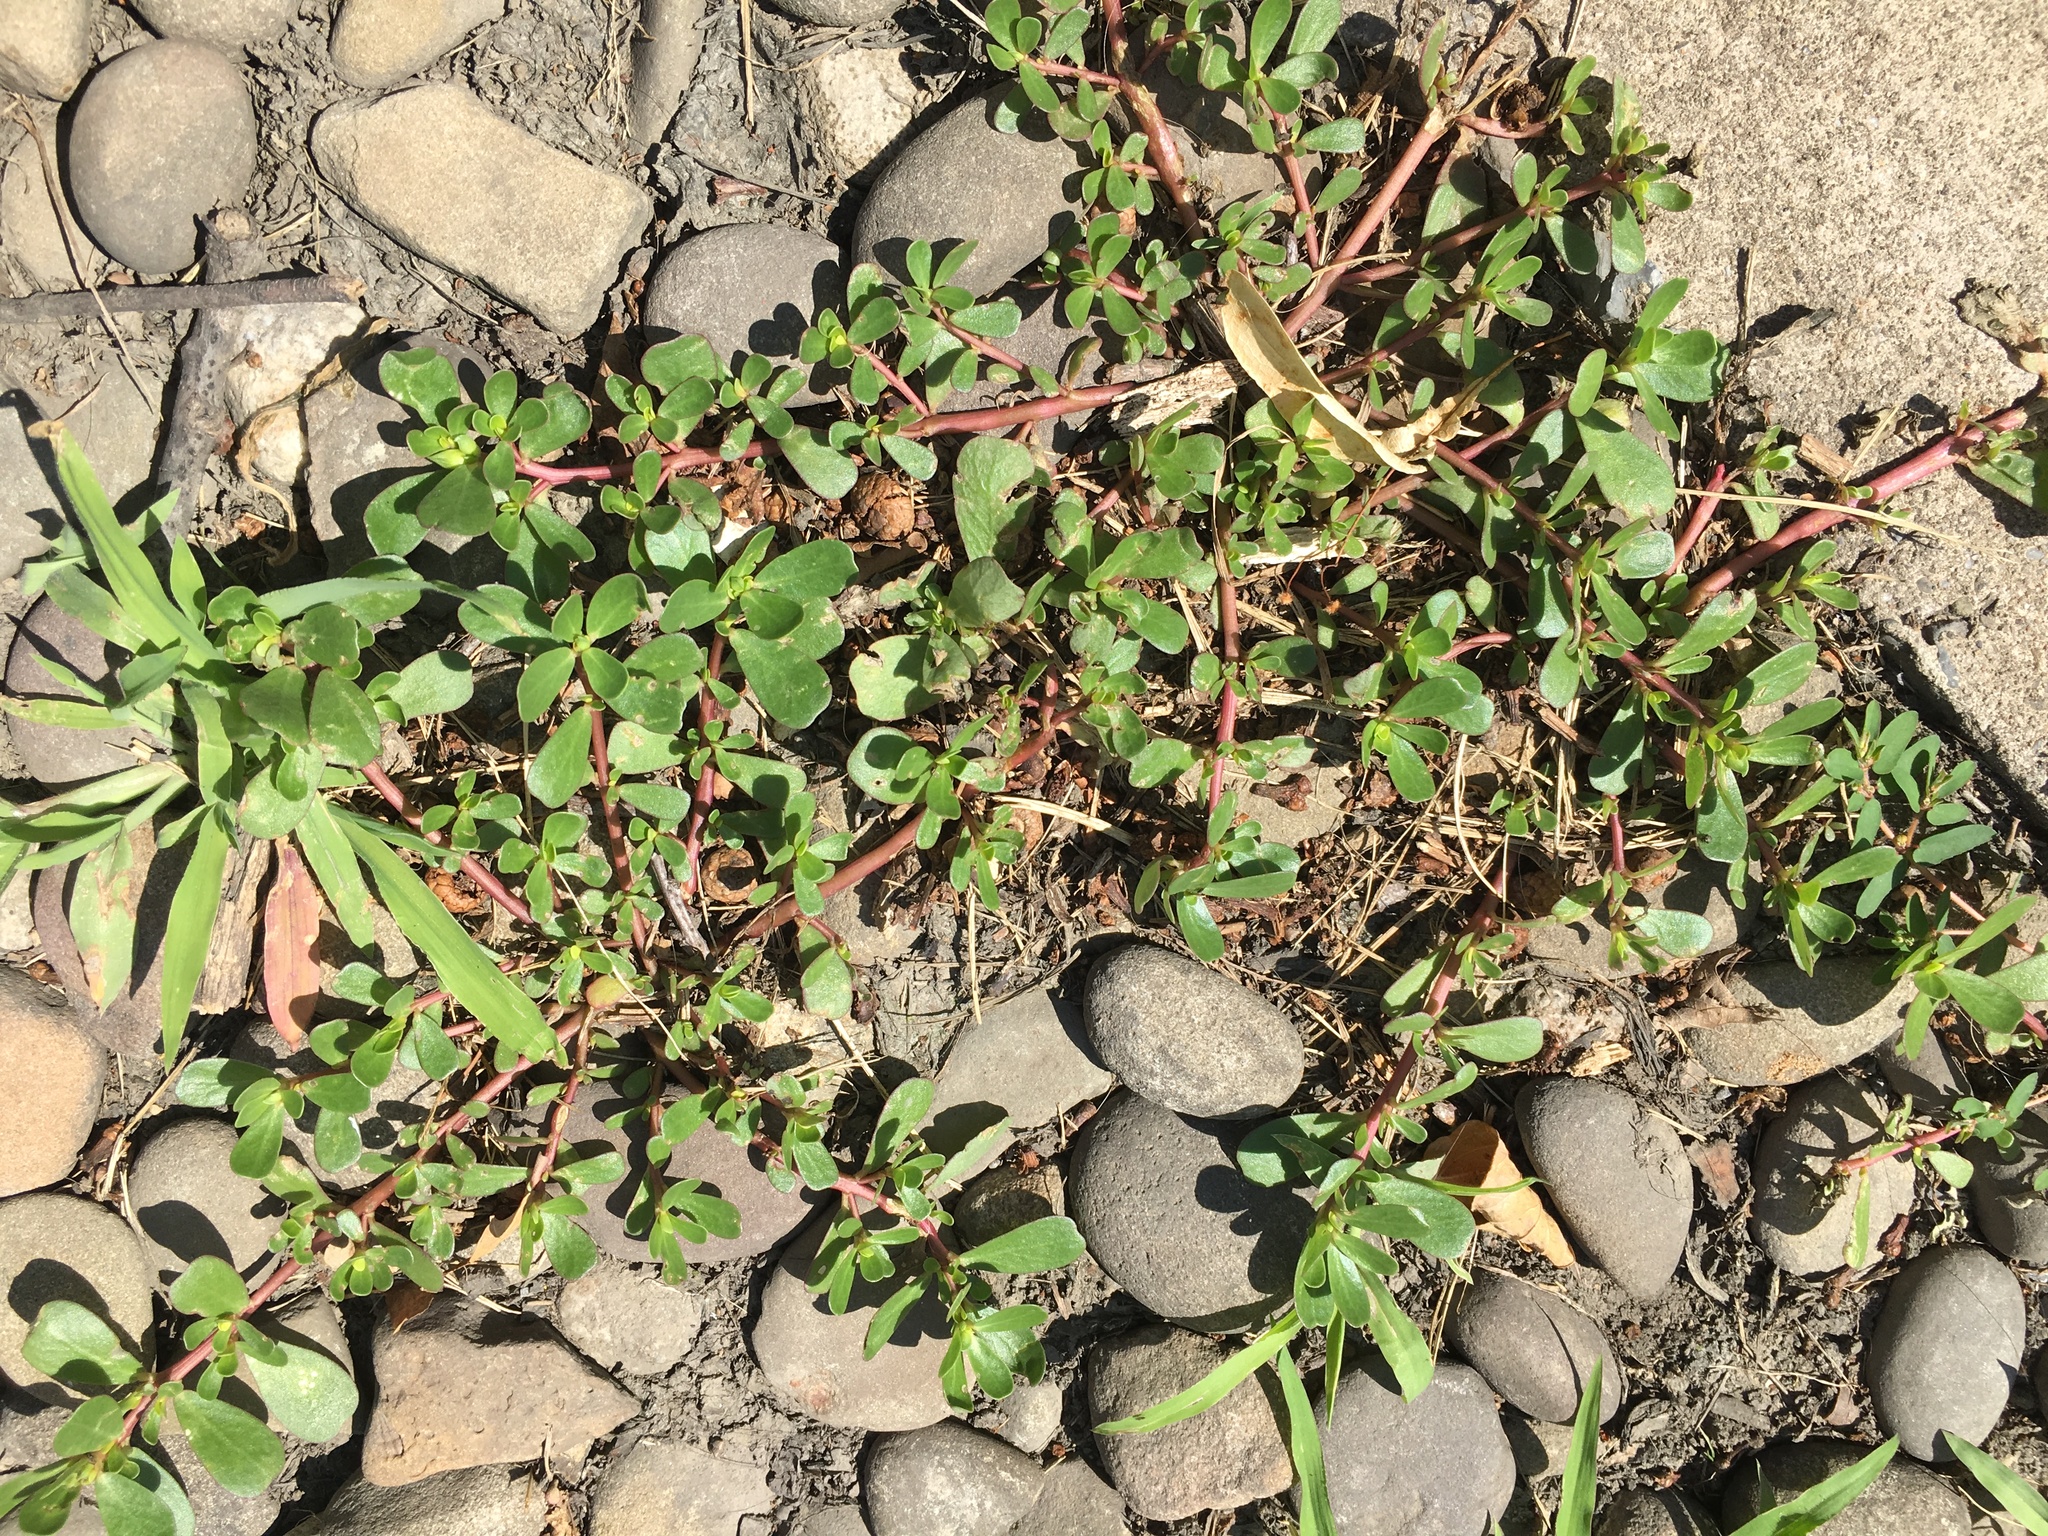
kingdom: Plantae
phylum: Tracheophyta
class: Magnoliopsida
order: Caryophyllales
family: Portulacaceae
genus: Portulaca
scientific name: Portulaca oleracea
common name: Common purslane
